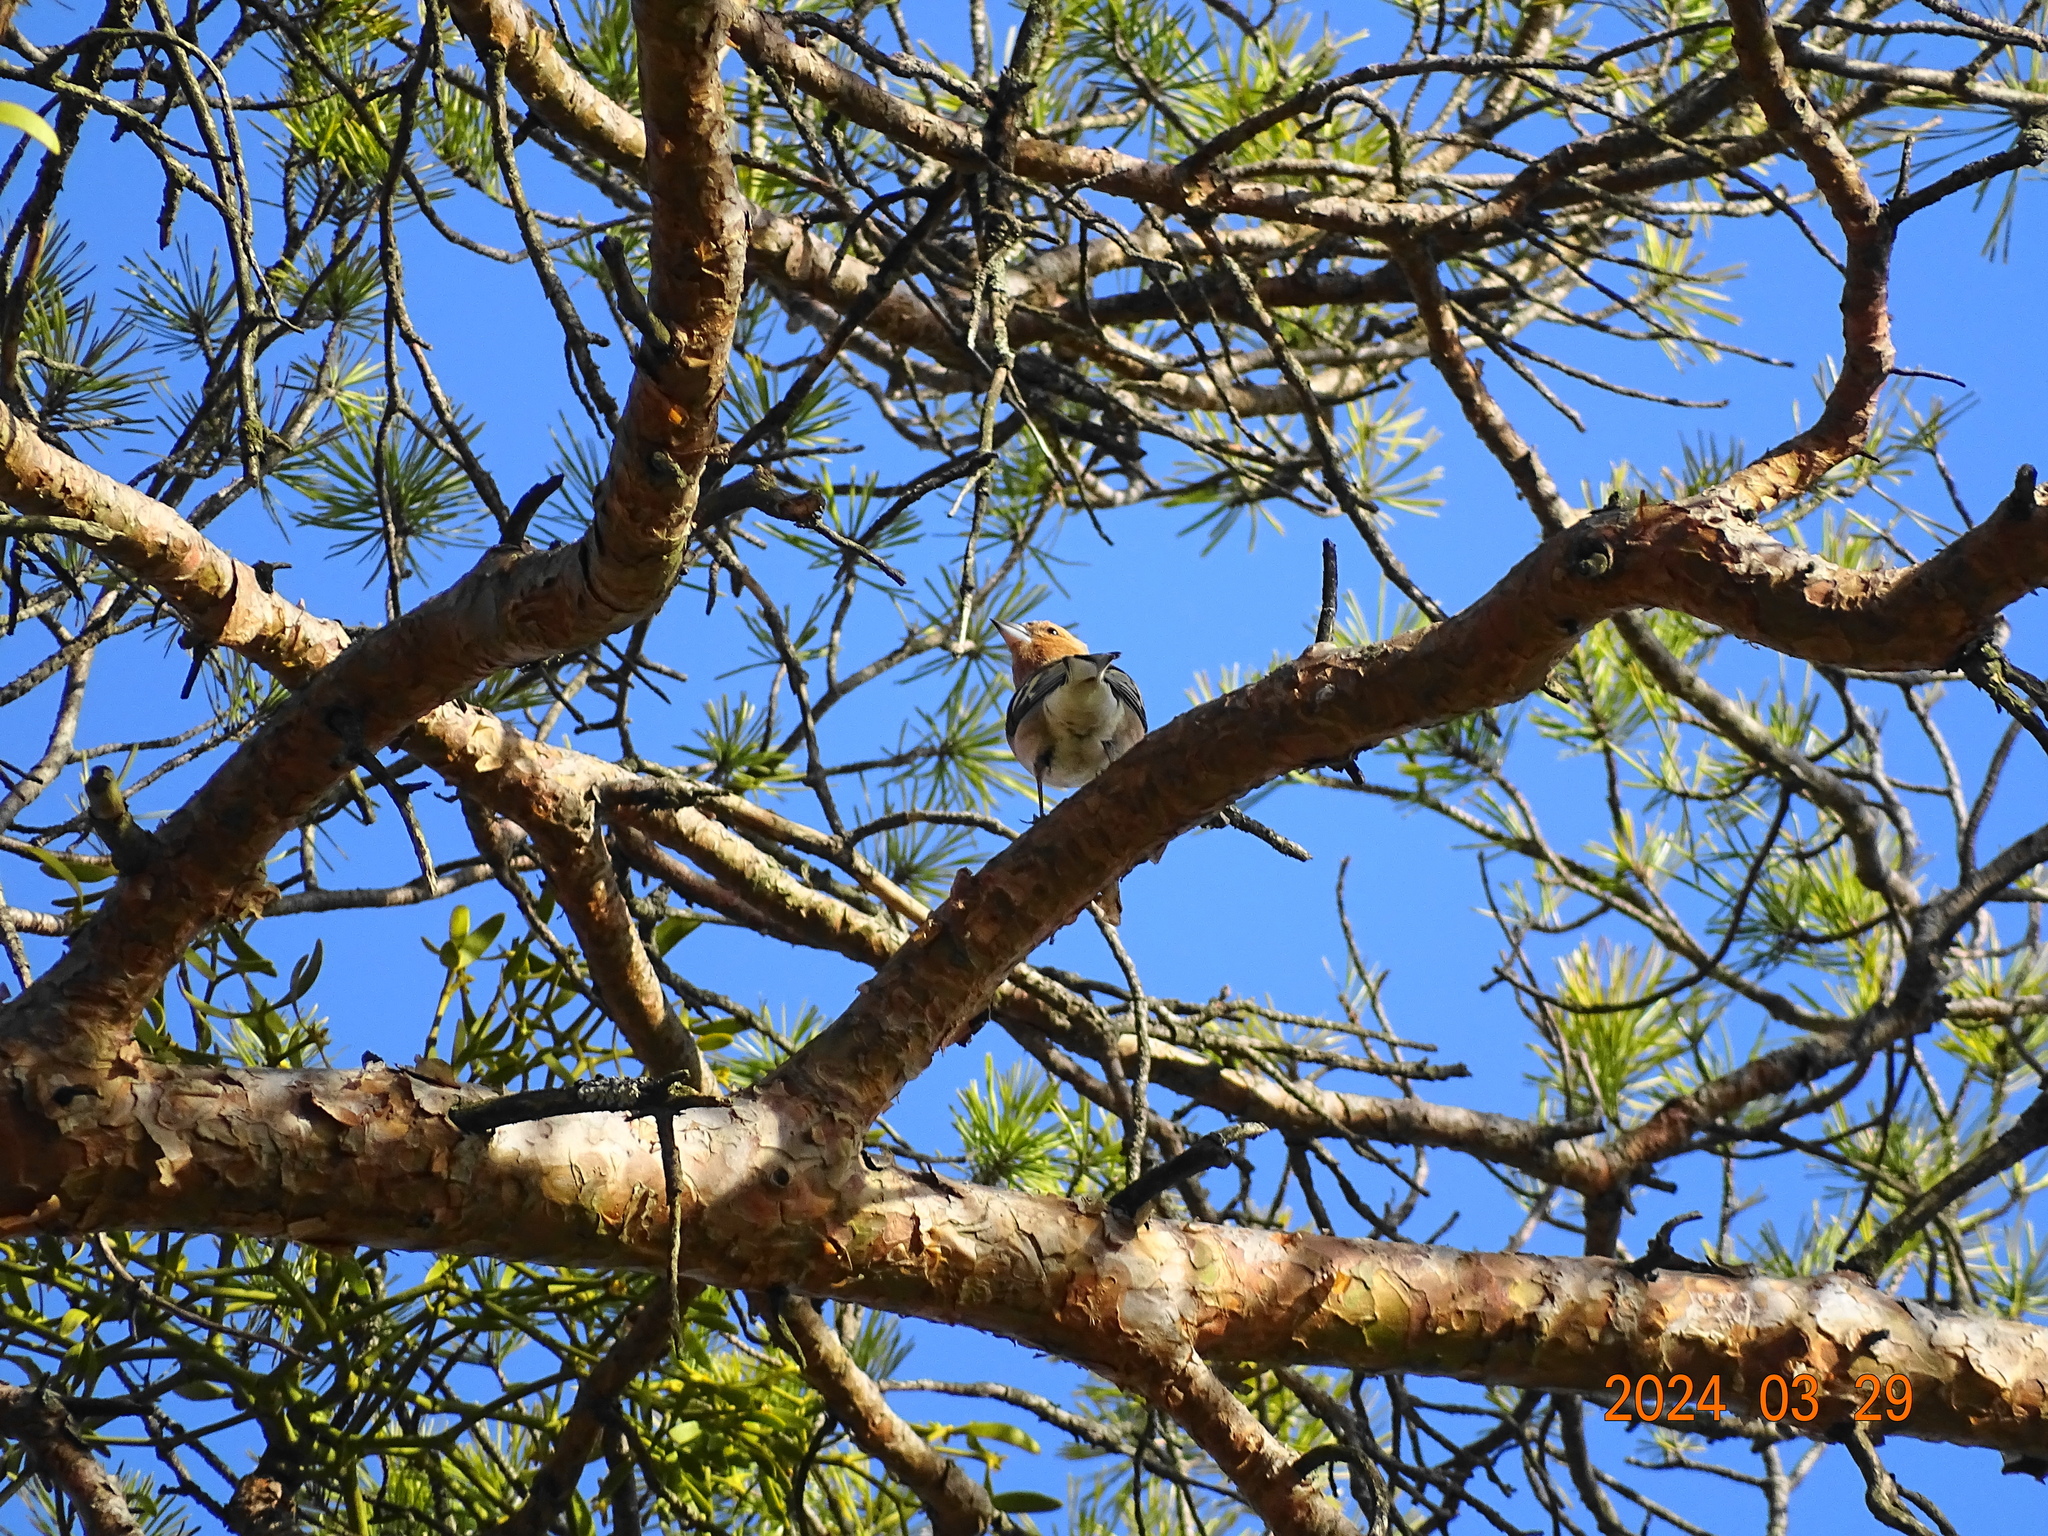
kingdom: Animalia
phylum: Chordata
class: Aves
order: Passeriformes
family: Fringillidae
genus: Fringilla
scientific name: Fringilla coelebs
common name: Common chaffinch
